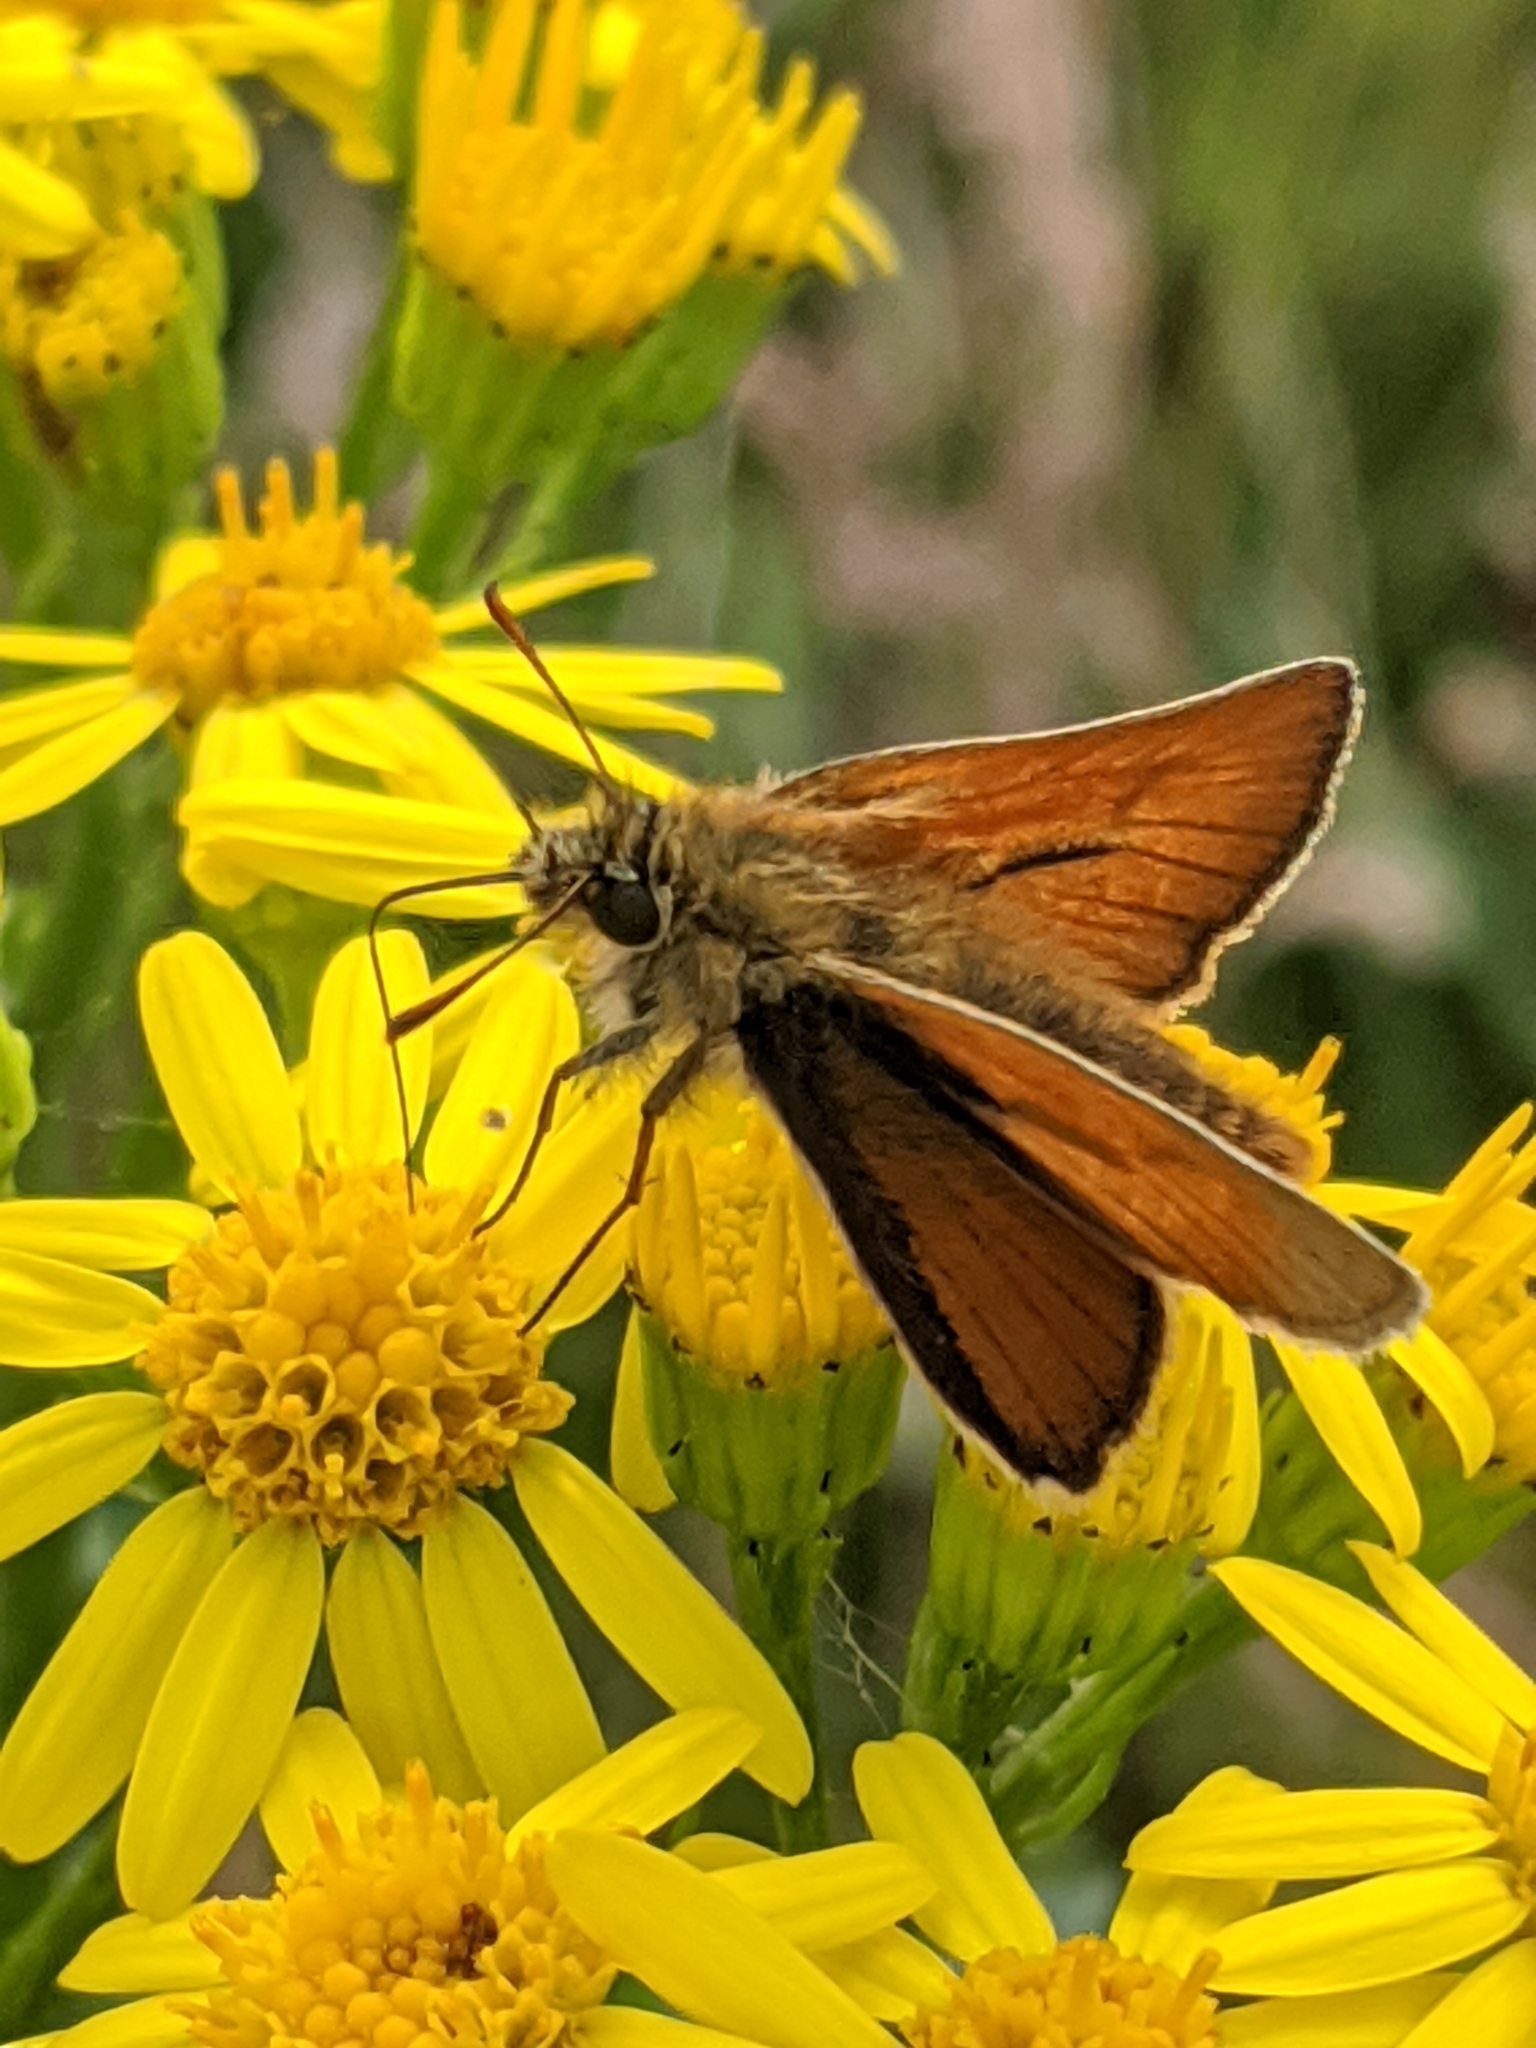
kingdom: Animalia
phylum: Arthropoda
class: Insecta
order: Lepidoptera
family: Hesperiidae
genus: Thymelicus
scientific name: Thymelicus sylvestris
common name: Small skipper
